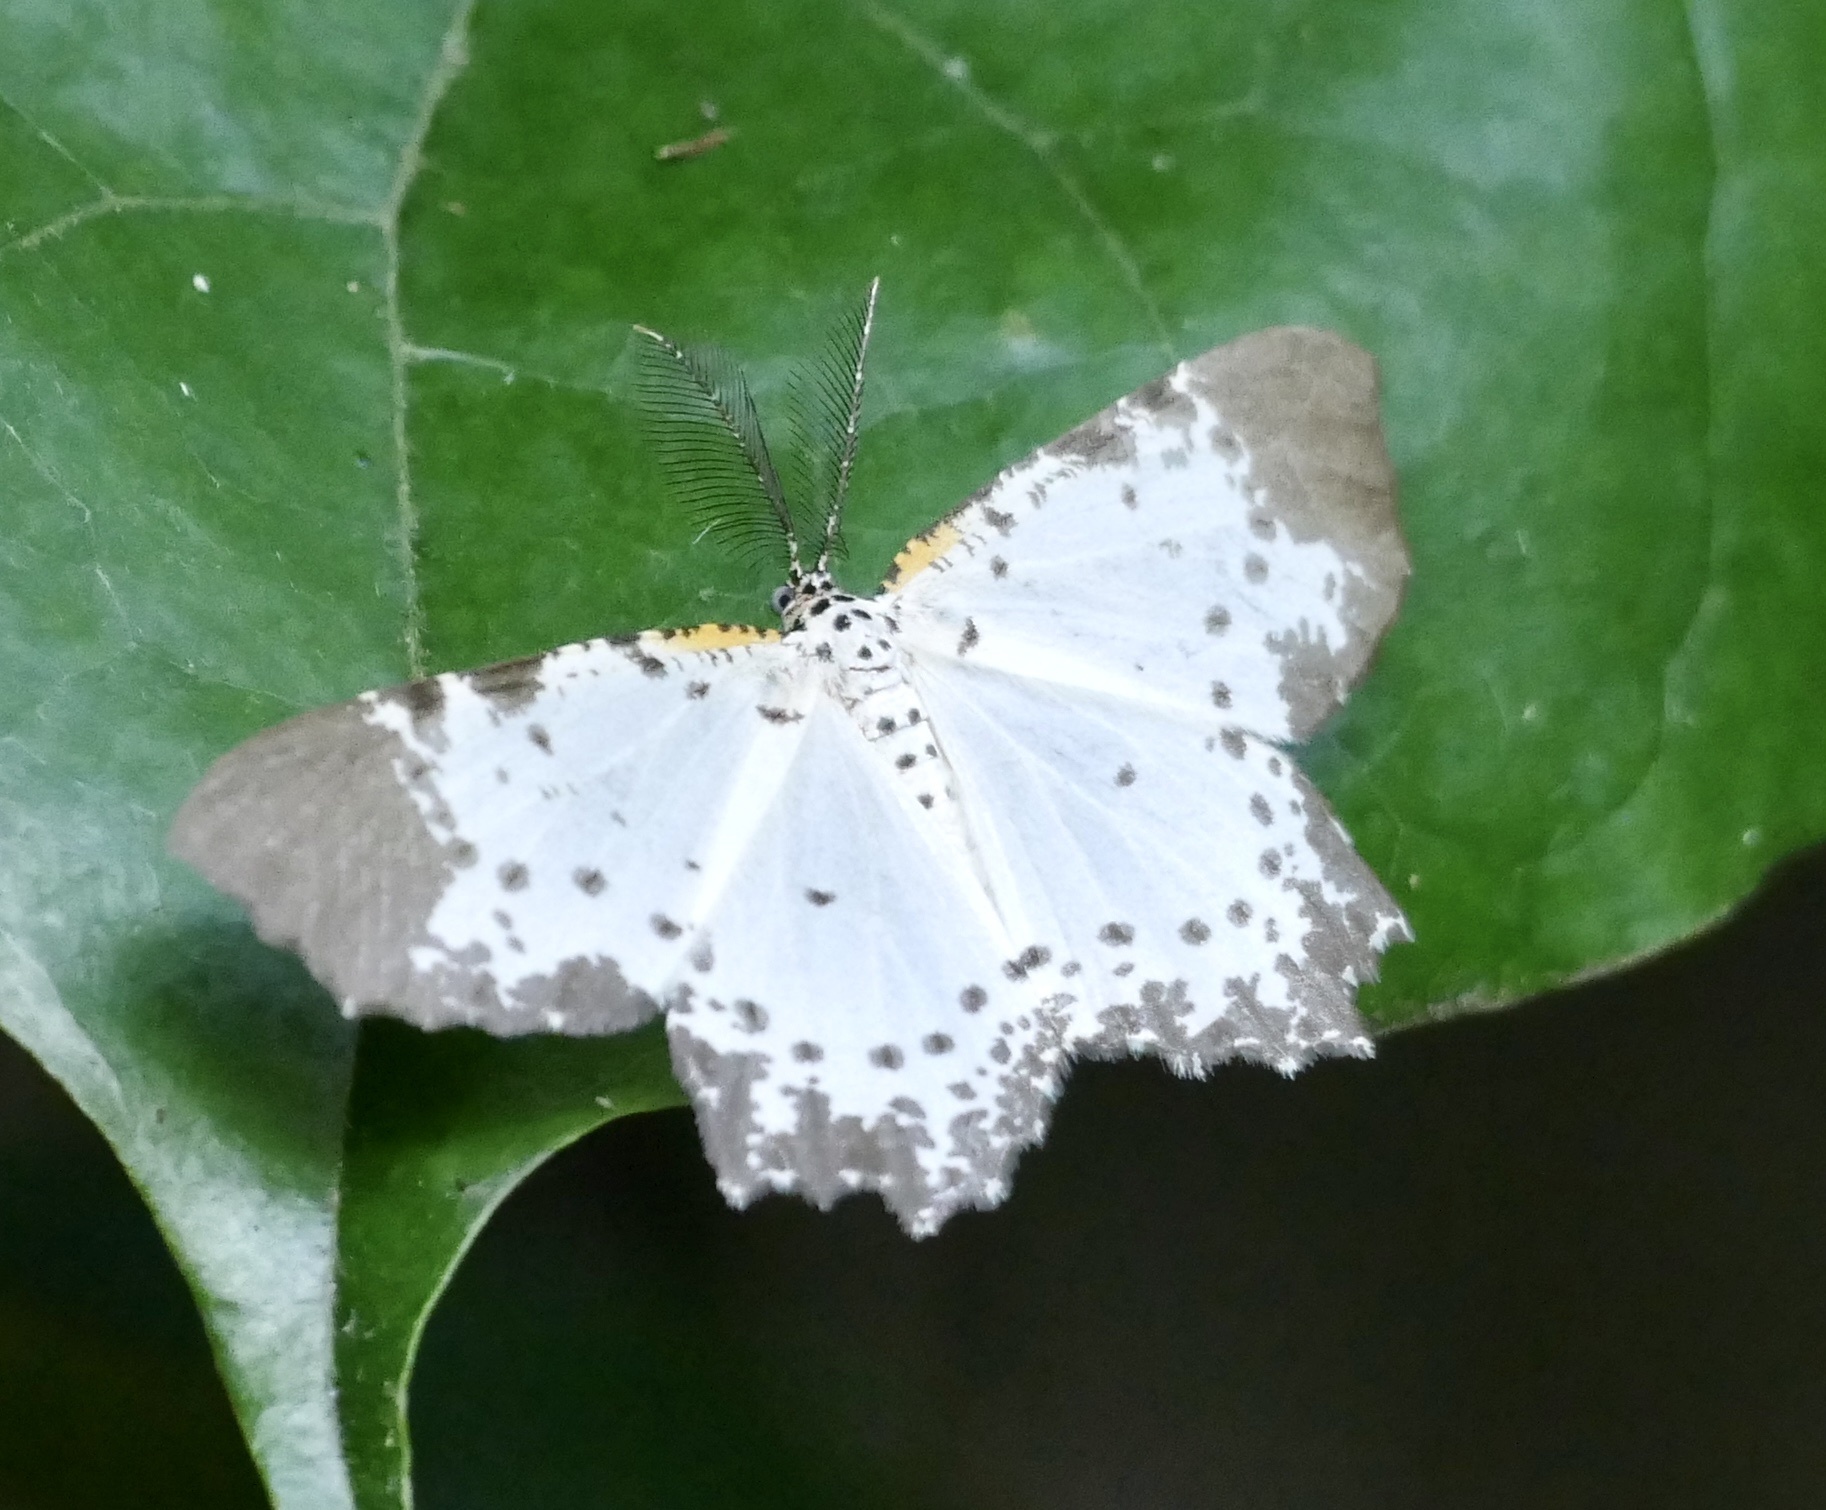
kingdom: Animalia
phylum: Arthropoda
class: Insecta
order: Lepidoptera
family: Geometridae
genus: Narthecusa
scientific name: Narthecusa perplexata
